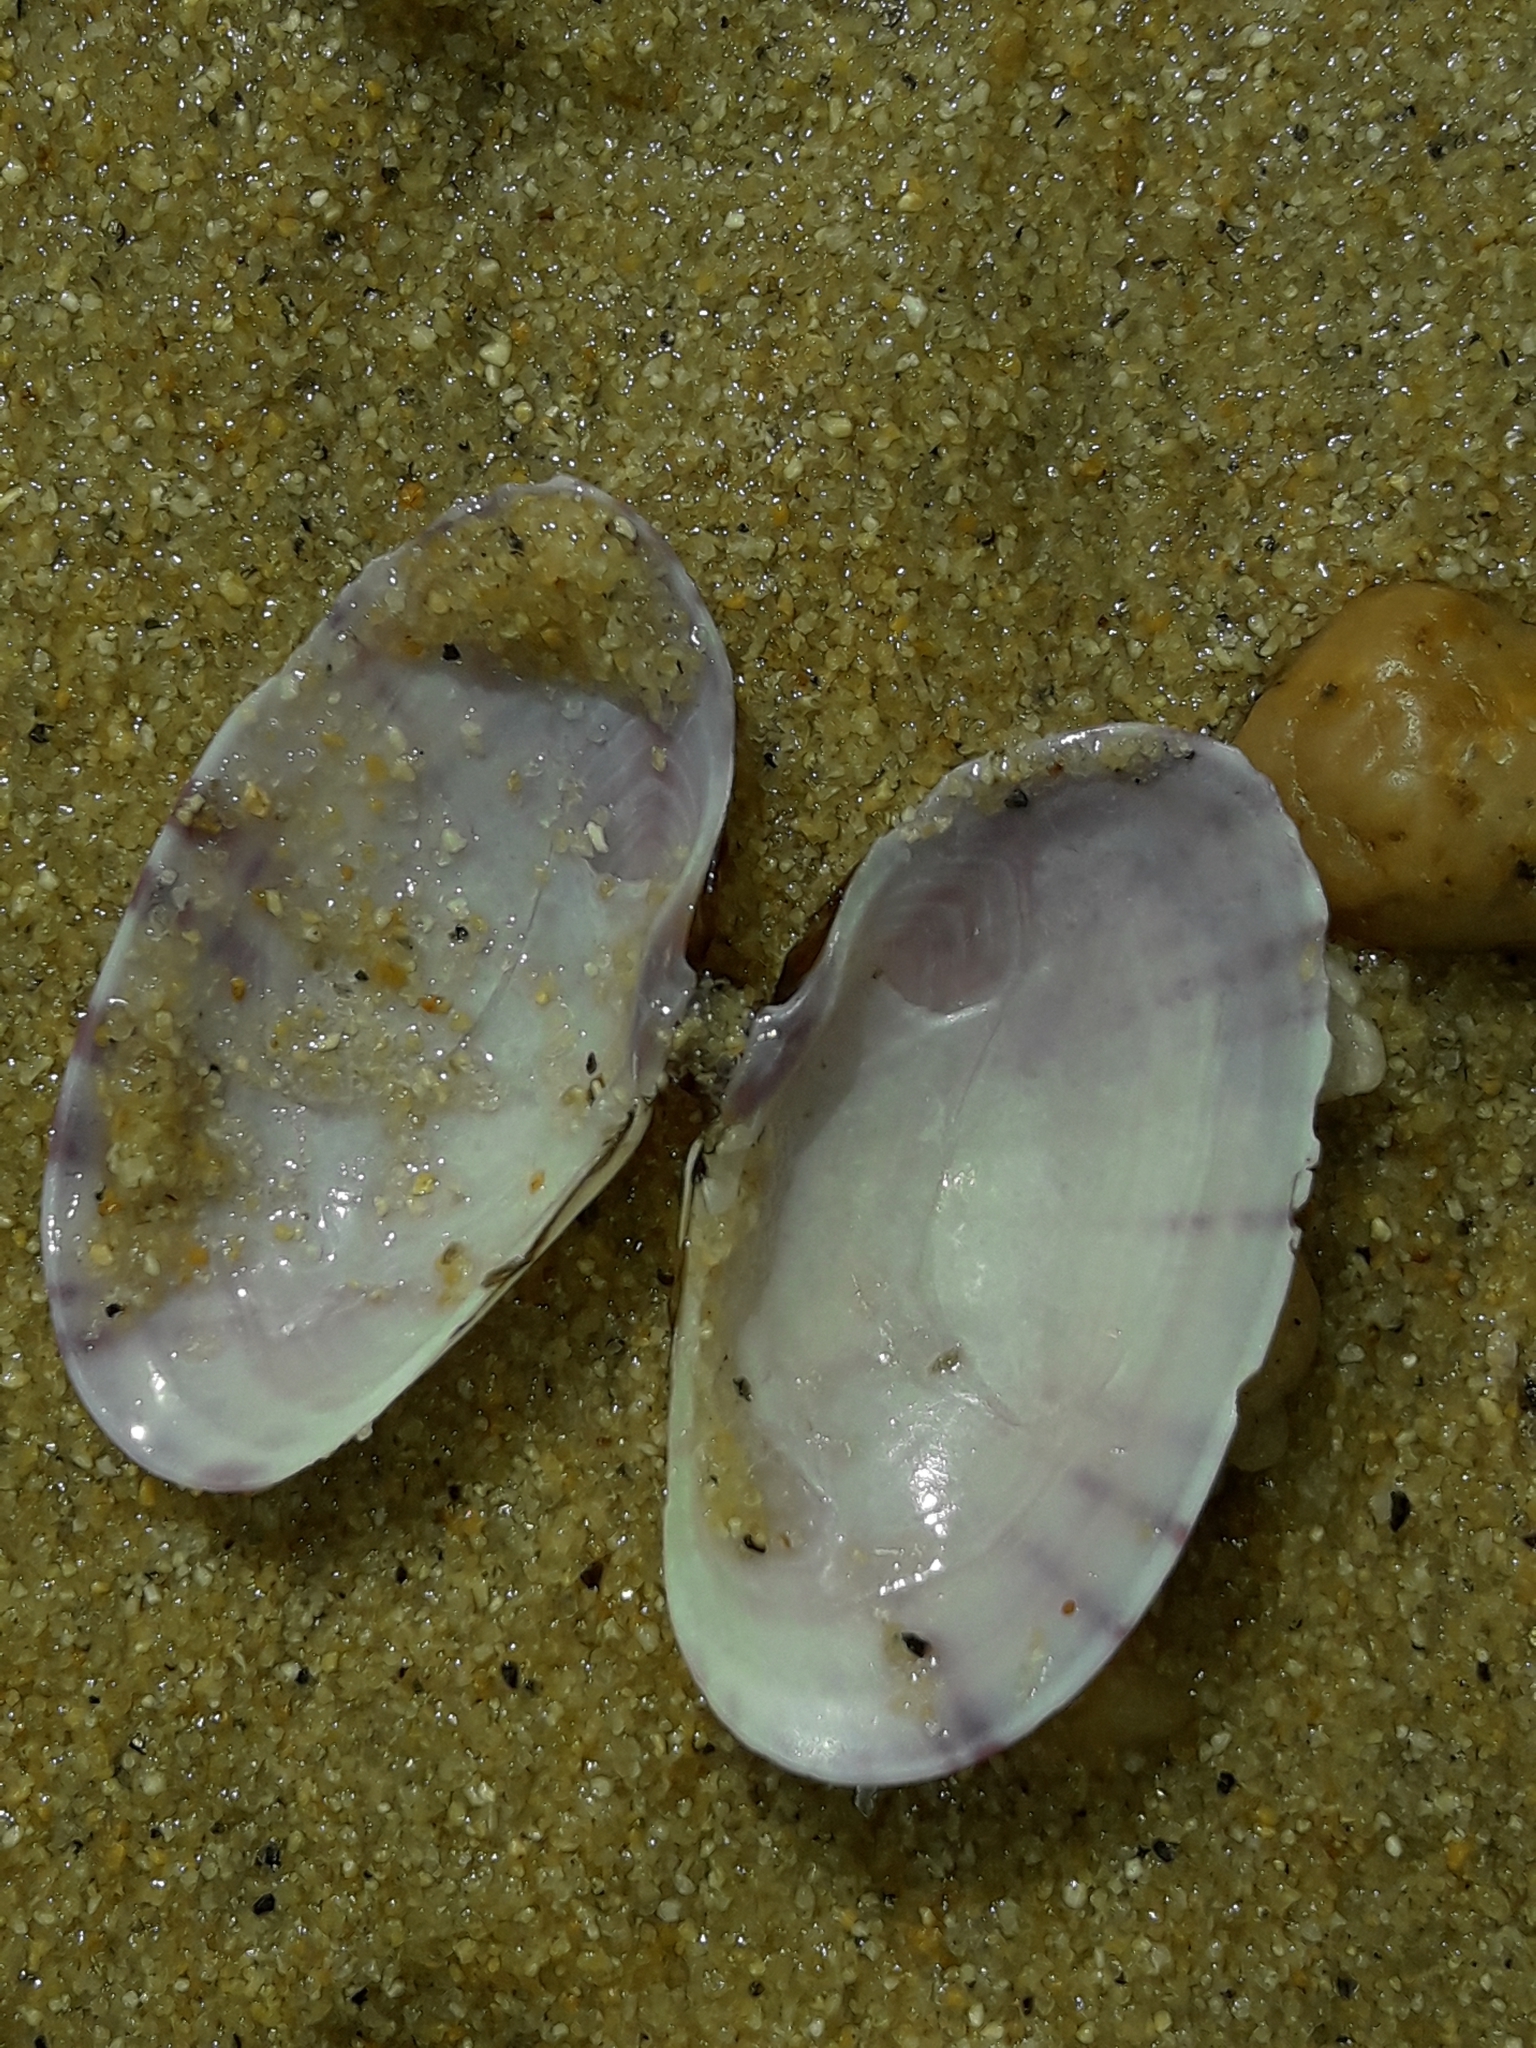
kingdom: Animalia
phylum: Mollusca
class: Bivalvia
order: Cardiida
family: Psammobiidae
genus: Gari
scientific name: Gari stangeri
